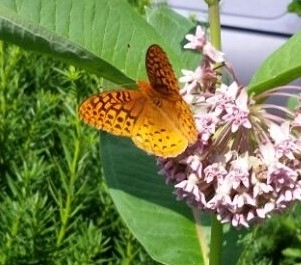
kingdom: Animalia
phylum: Arthropoda
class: Insecta
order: Lepidoptera
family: Nymphalidae
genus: Speyeria
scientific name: Speyeria cybele
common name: Great spangled fritillary
